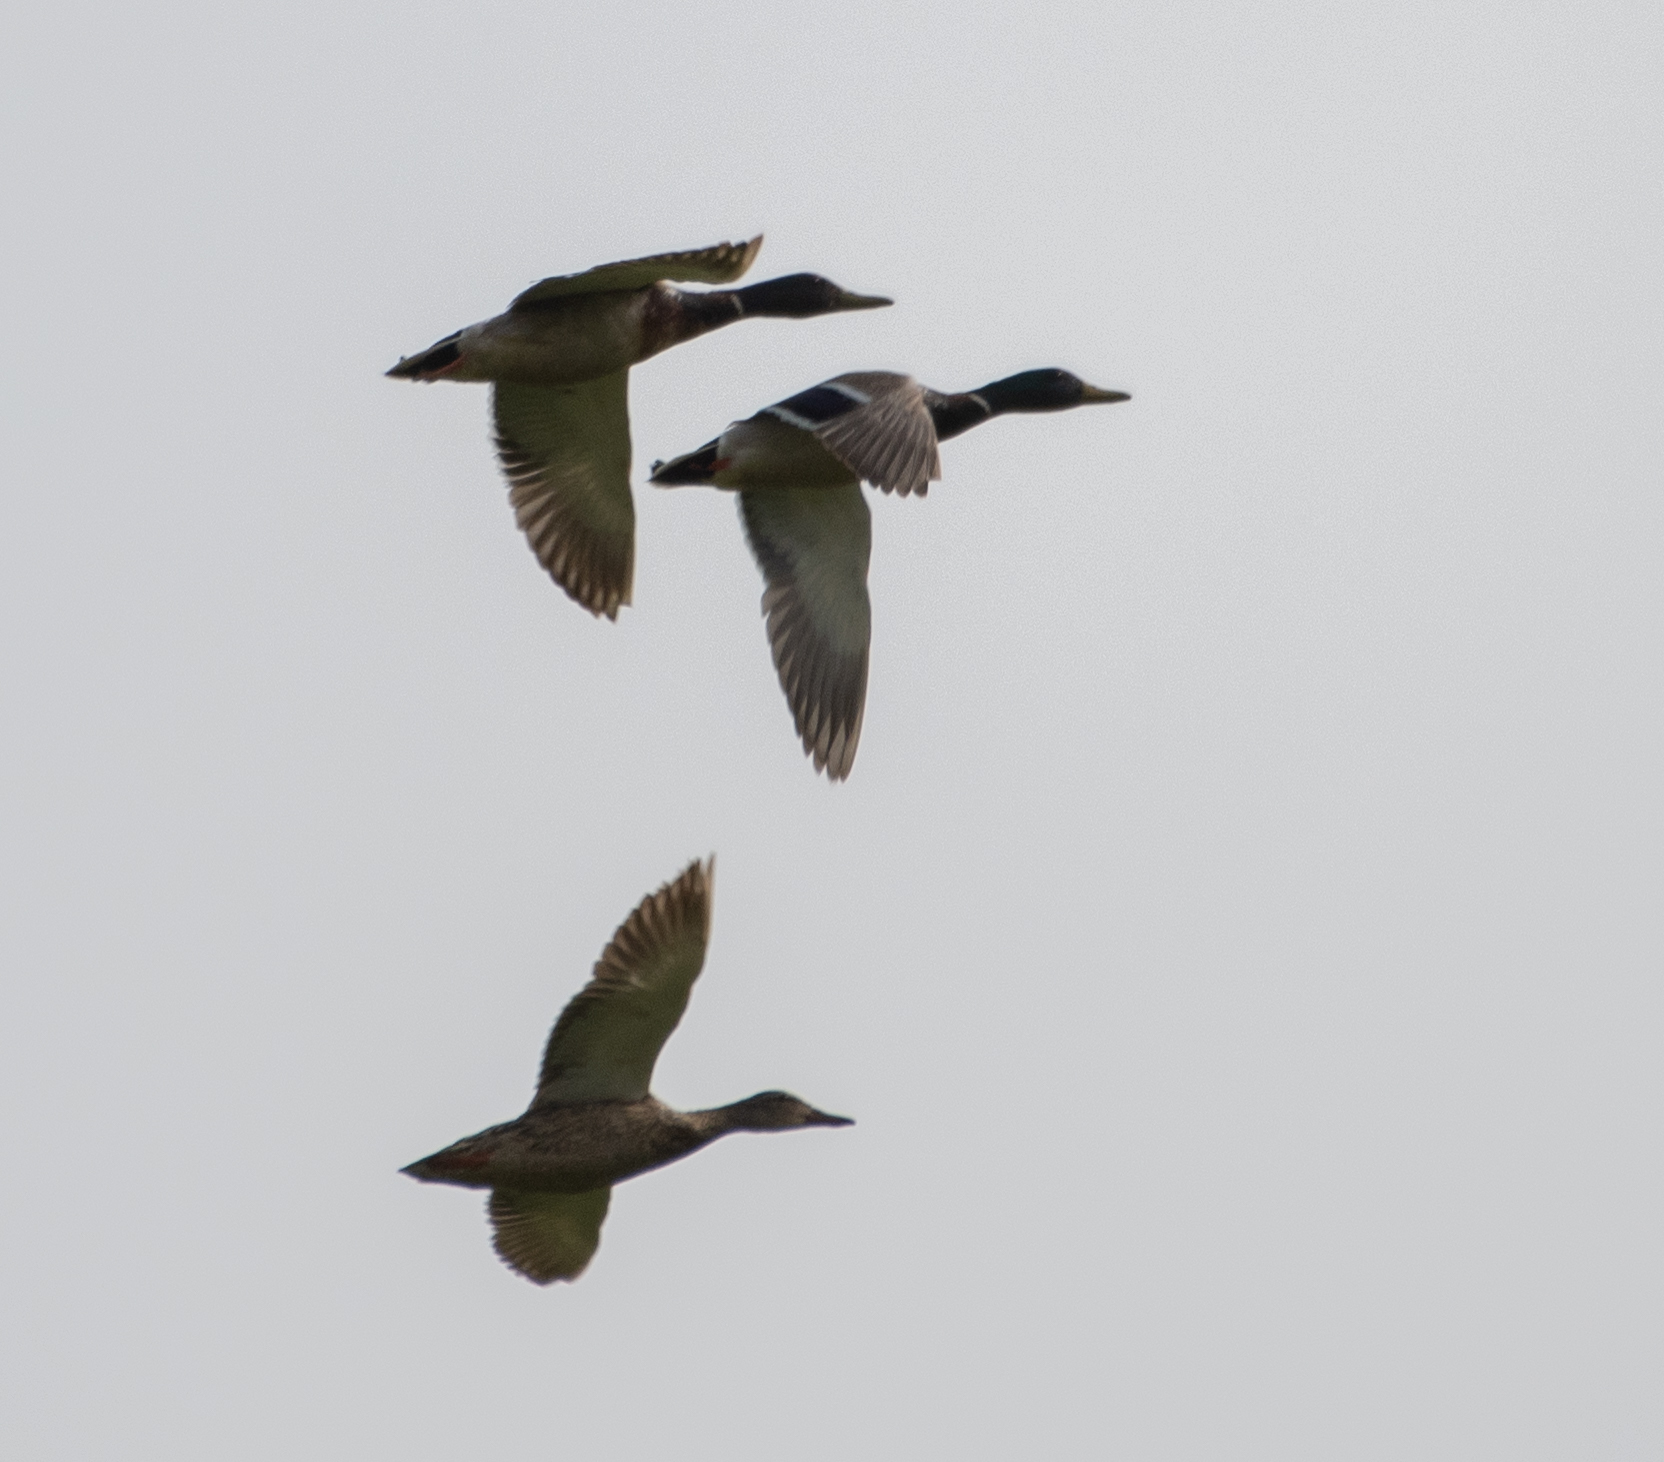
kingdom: Animalia
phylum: Chordata
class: Aves
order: Anseriformes
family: Anatidae
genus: Anas
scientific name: Anas platyrhynchos
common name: Mallard
